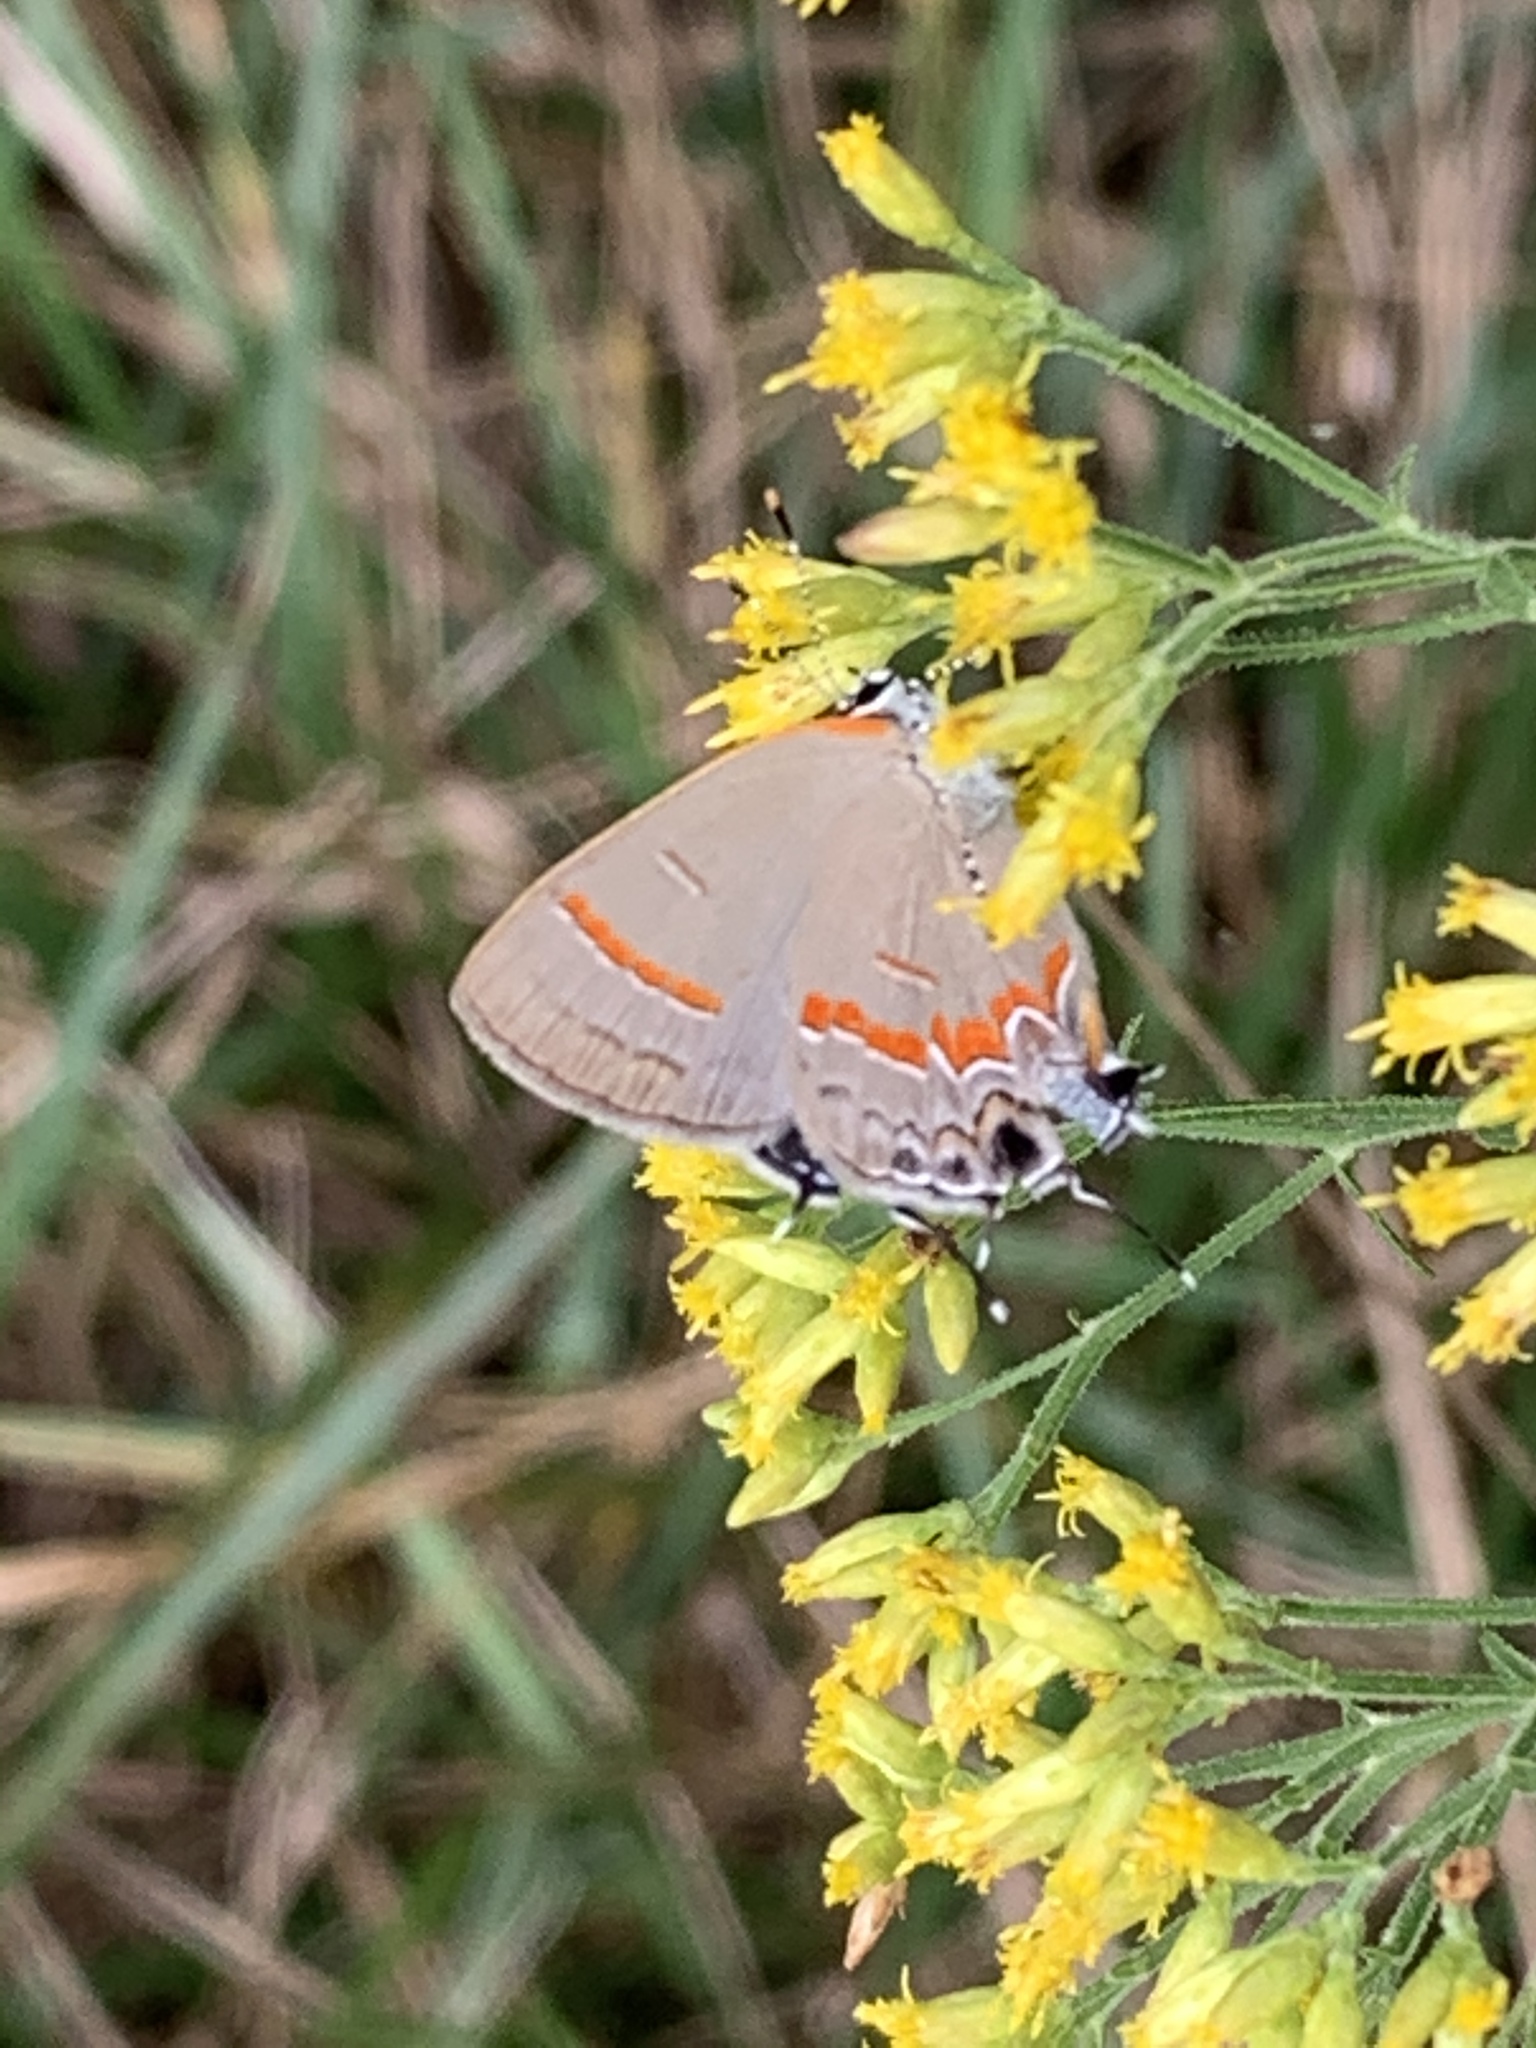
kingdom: Animalia
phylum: Arthropoda
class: Insecta
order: Lepidoptera
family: Lycaenidae
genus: Calycopis
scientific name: Calycopis cecrops
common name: Red-banded hairstreak
